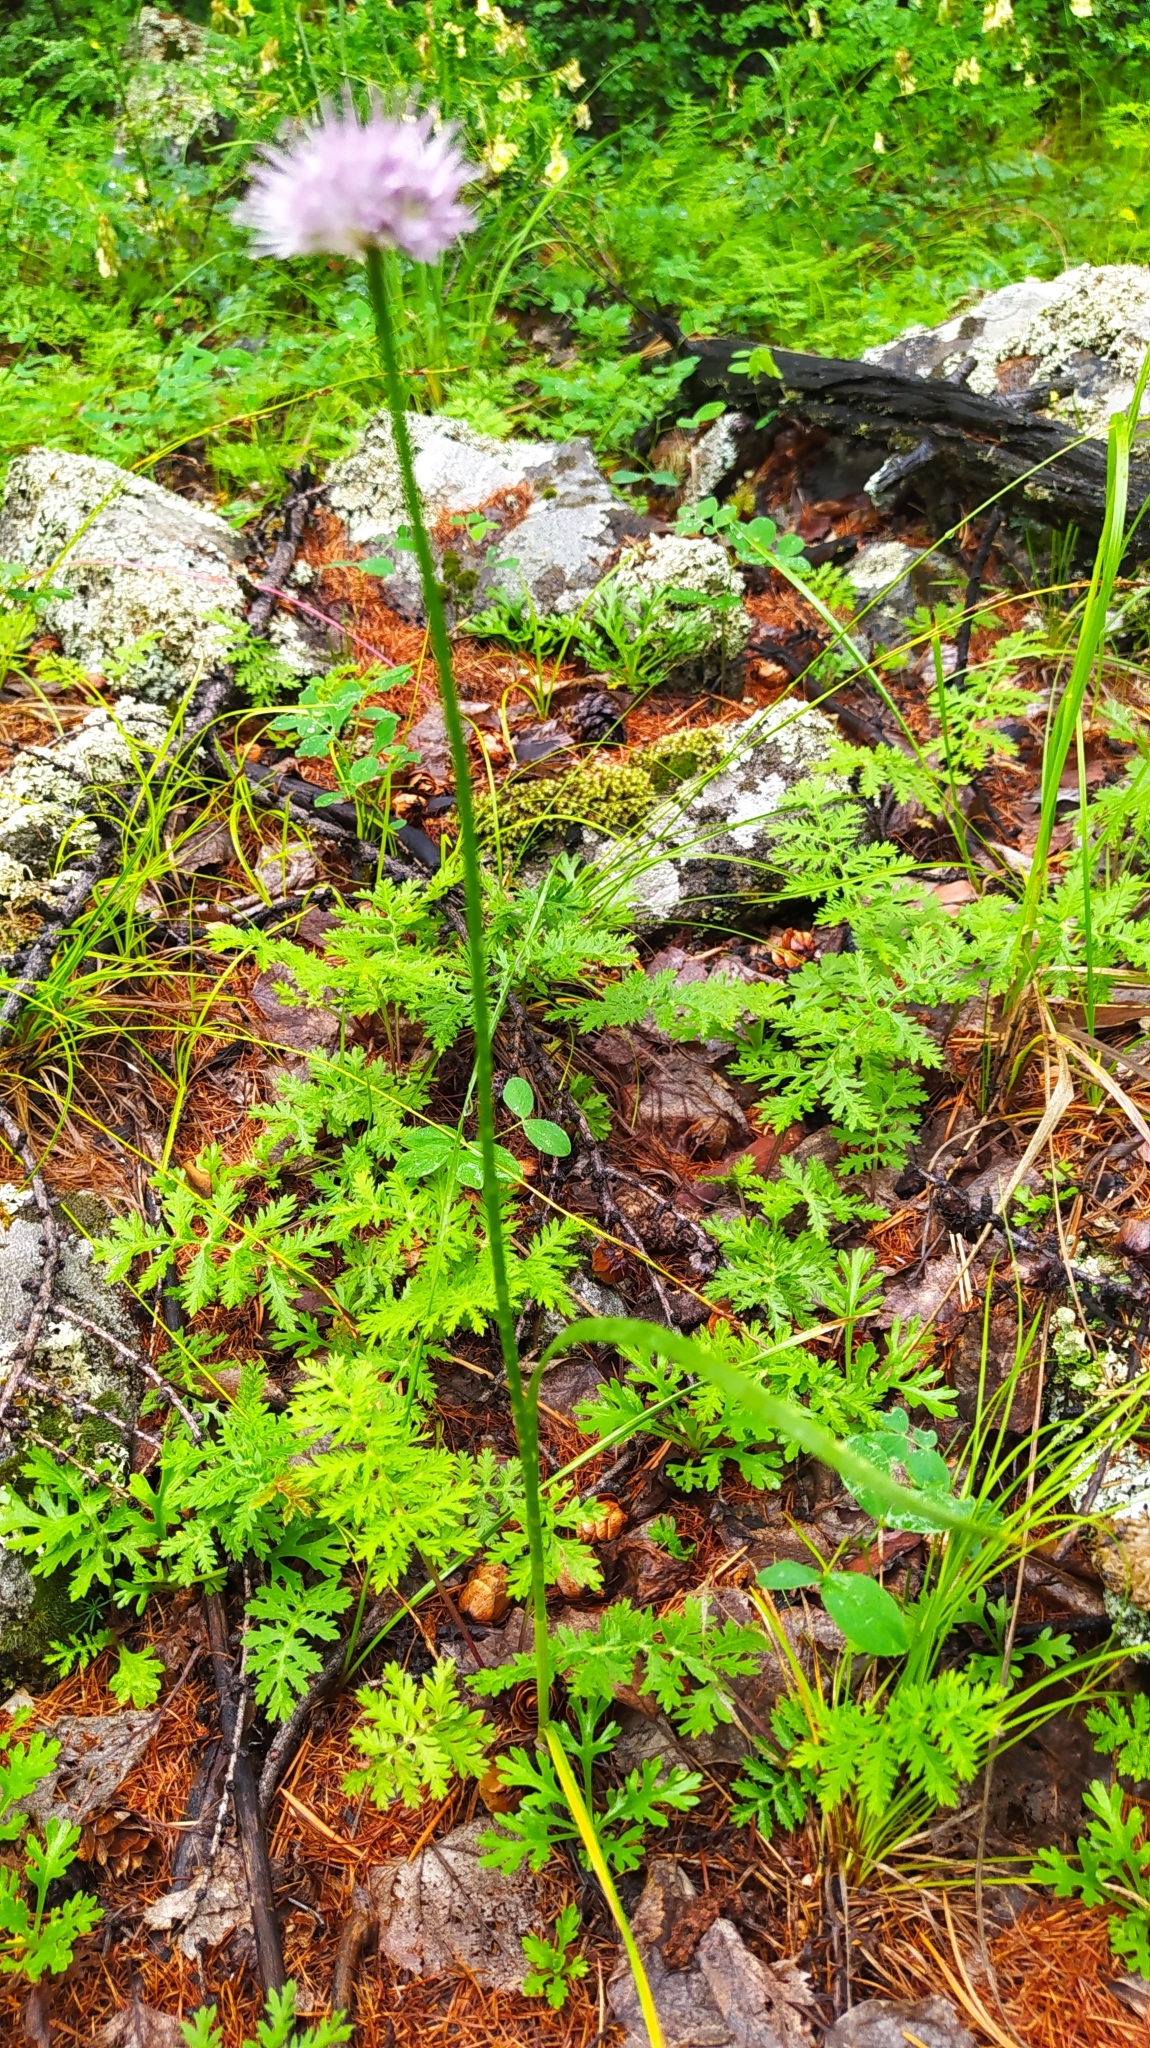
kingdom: Plantae
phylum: Tracheophyta
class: Liliopsida
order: Asparagales
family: Amaryllidaceae
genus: Allium
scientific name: Allium splendens
